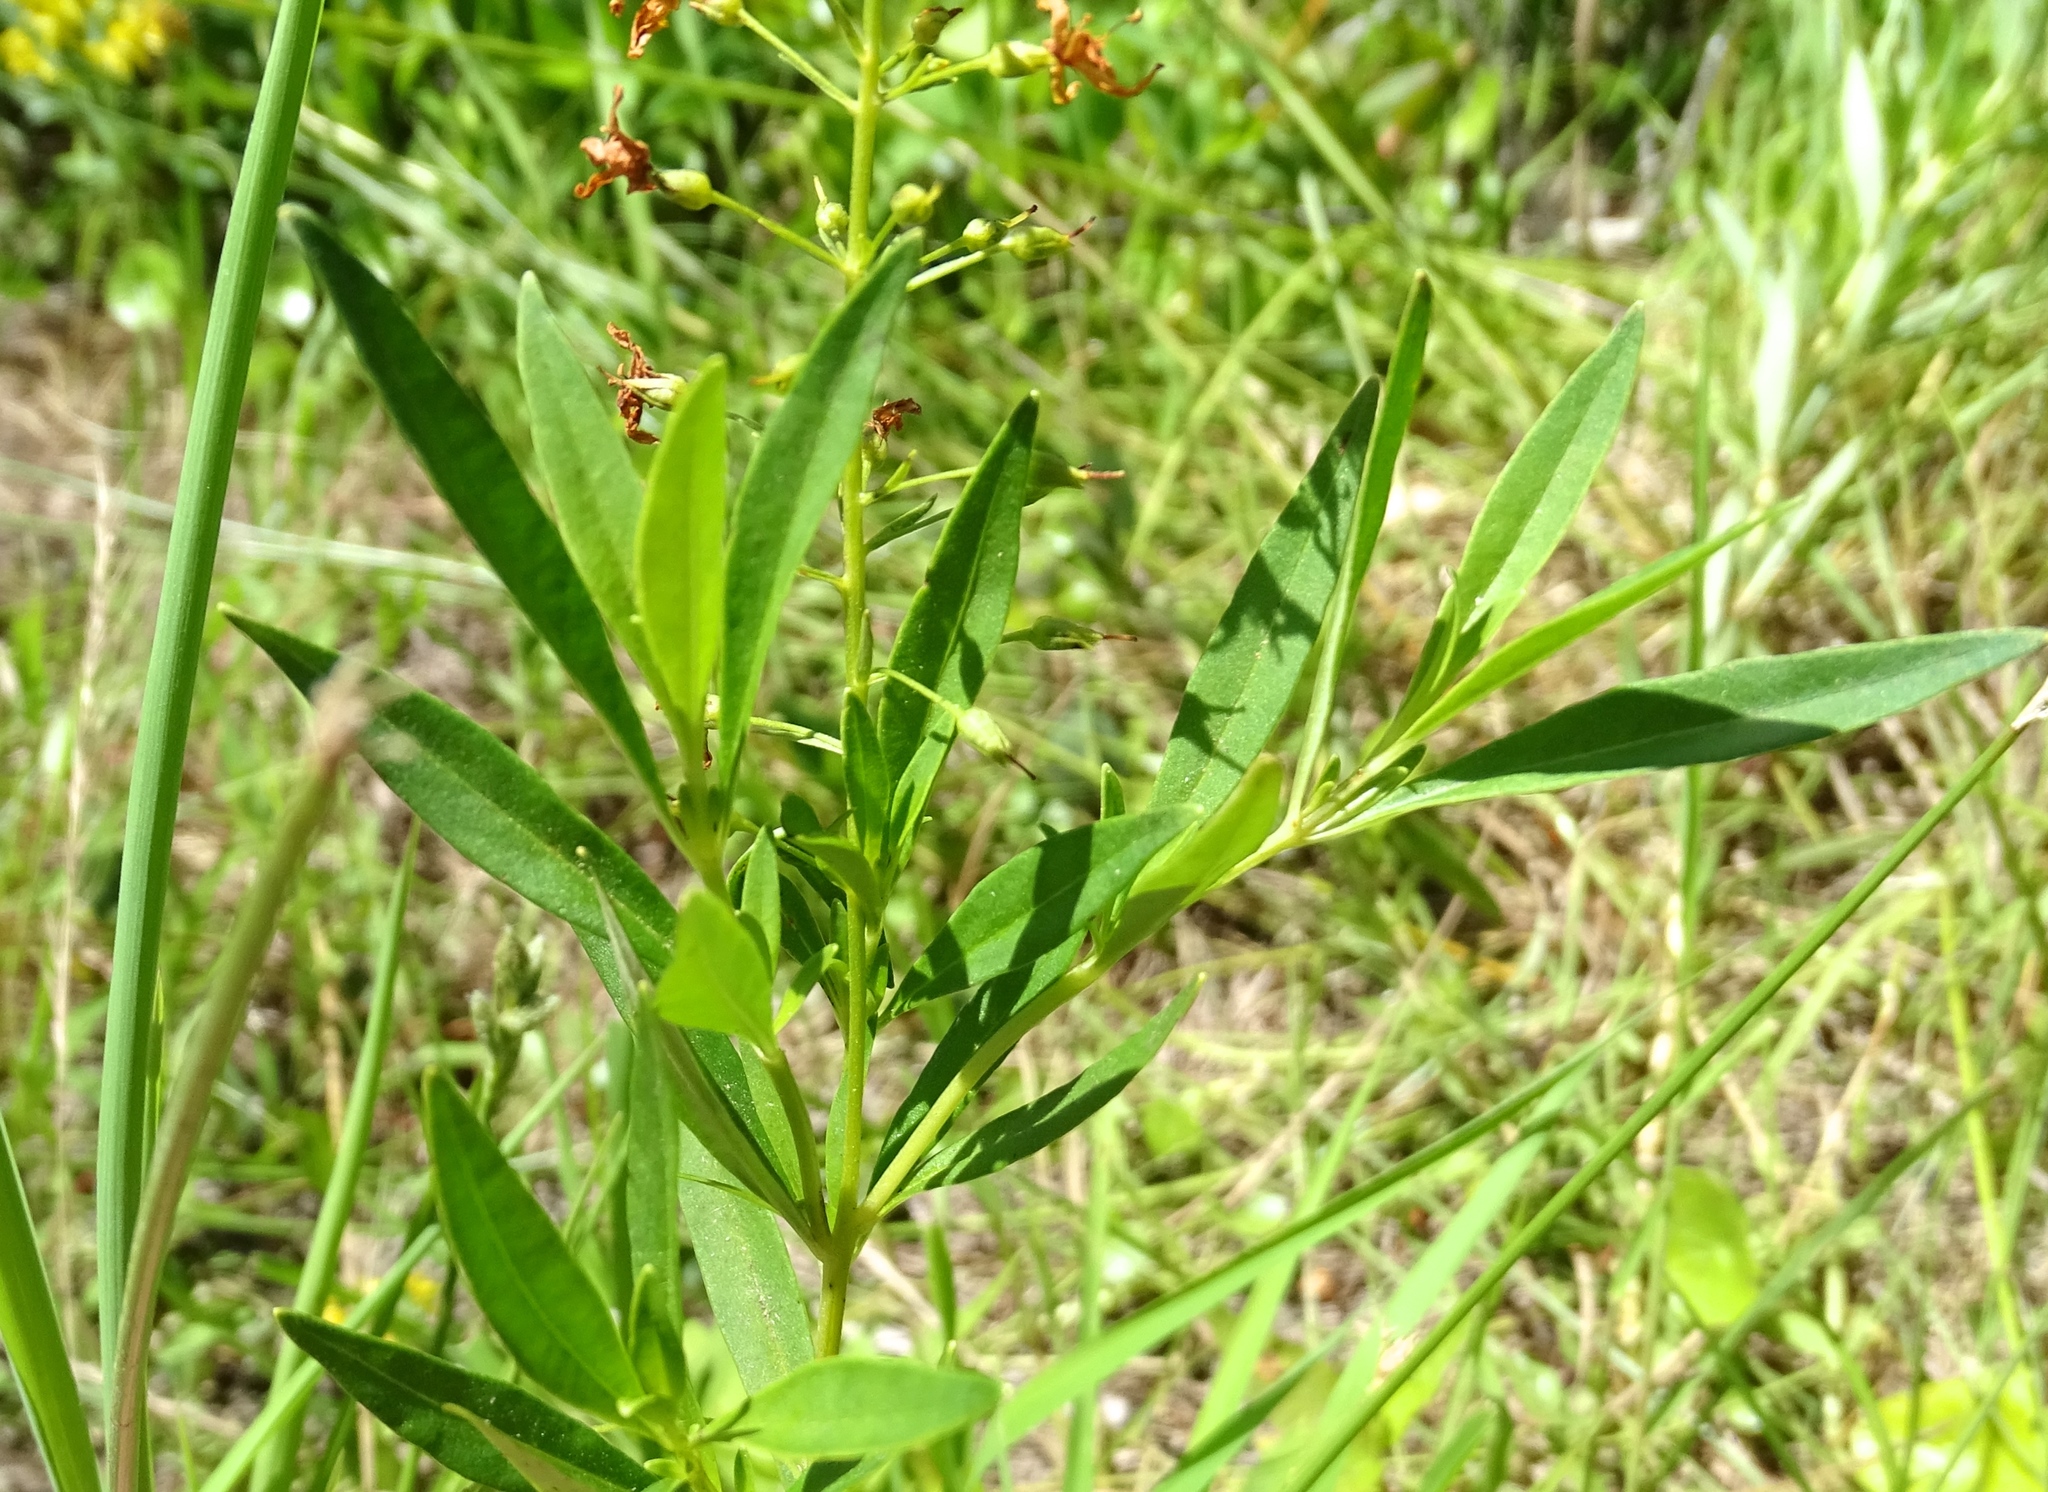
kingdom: Plantae
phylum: Tracheophyta
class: Magnoliopsida
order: Ericales
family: Primulaceae
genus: Lysimachia
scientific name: Lysimachia terrestris
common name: Lake loosestrife
